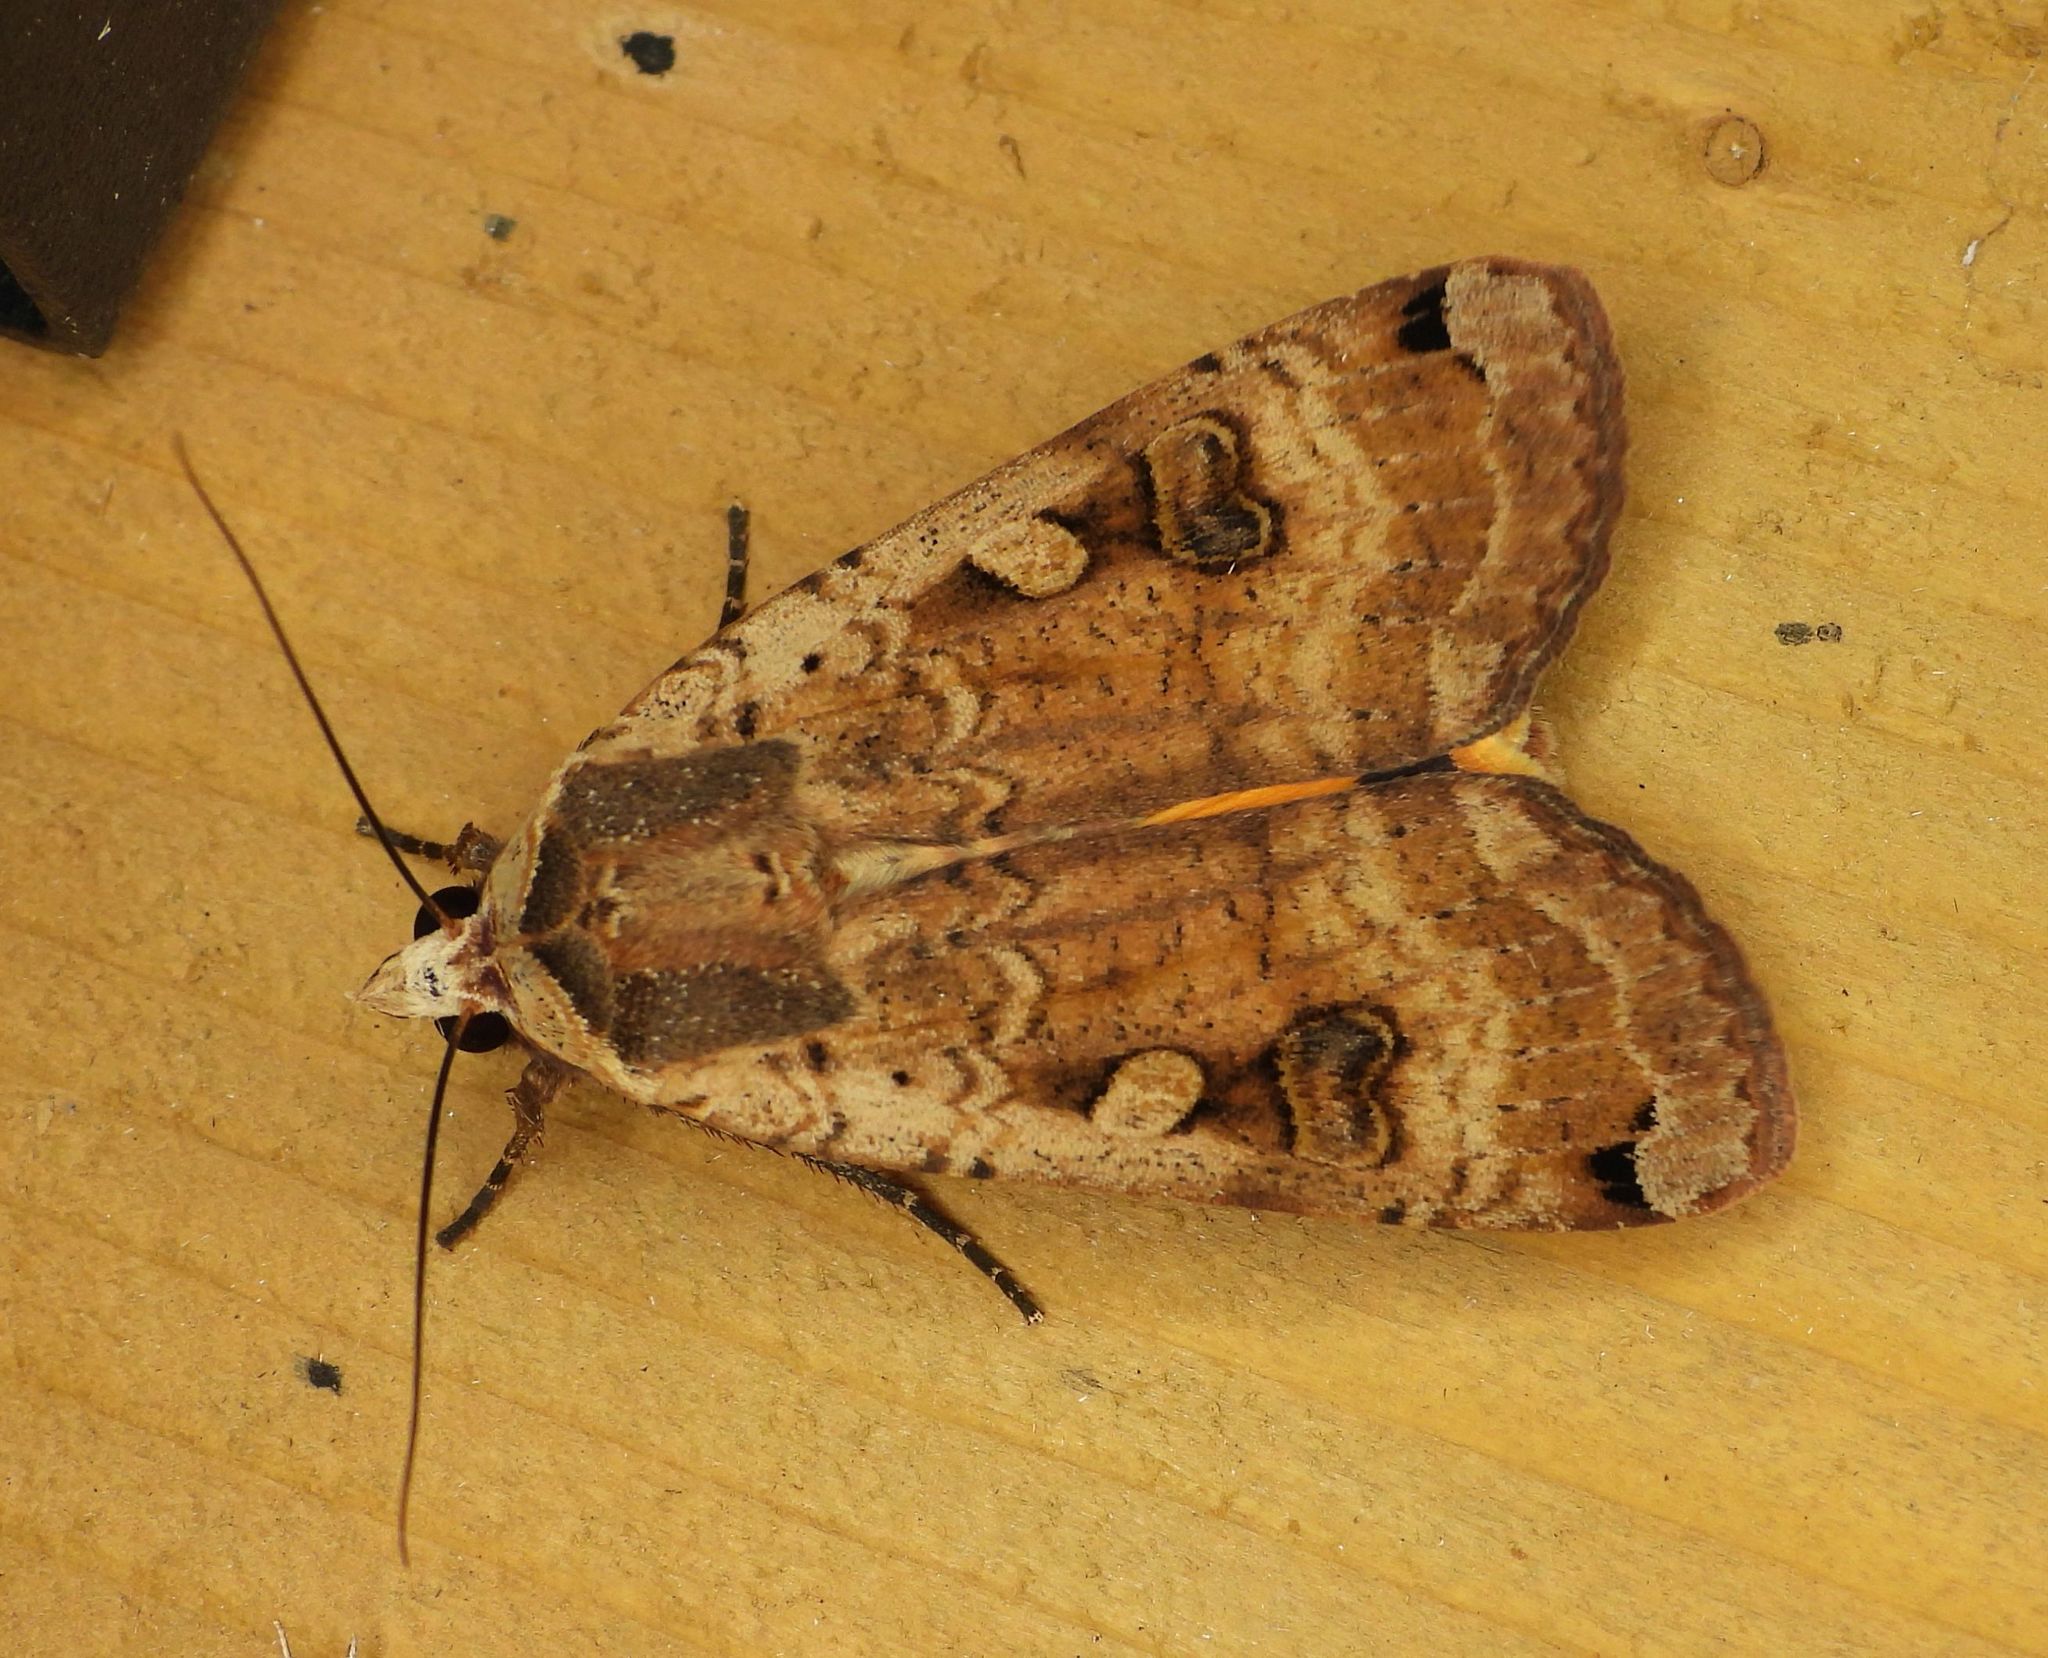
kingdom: Animalia
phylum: Arthropoda
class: Insecta
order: Lepidoptera
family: Noctuidae
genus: Noctua
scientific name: Noctua pronuba
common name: Large yellow underwing
